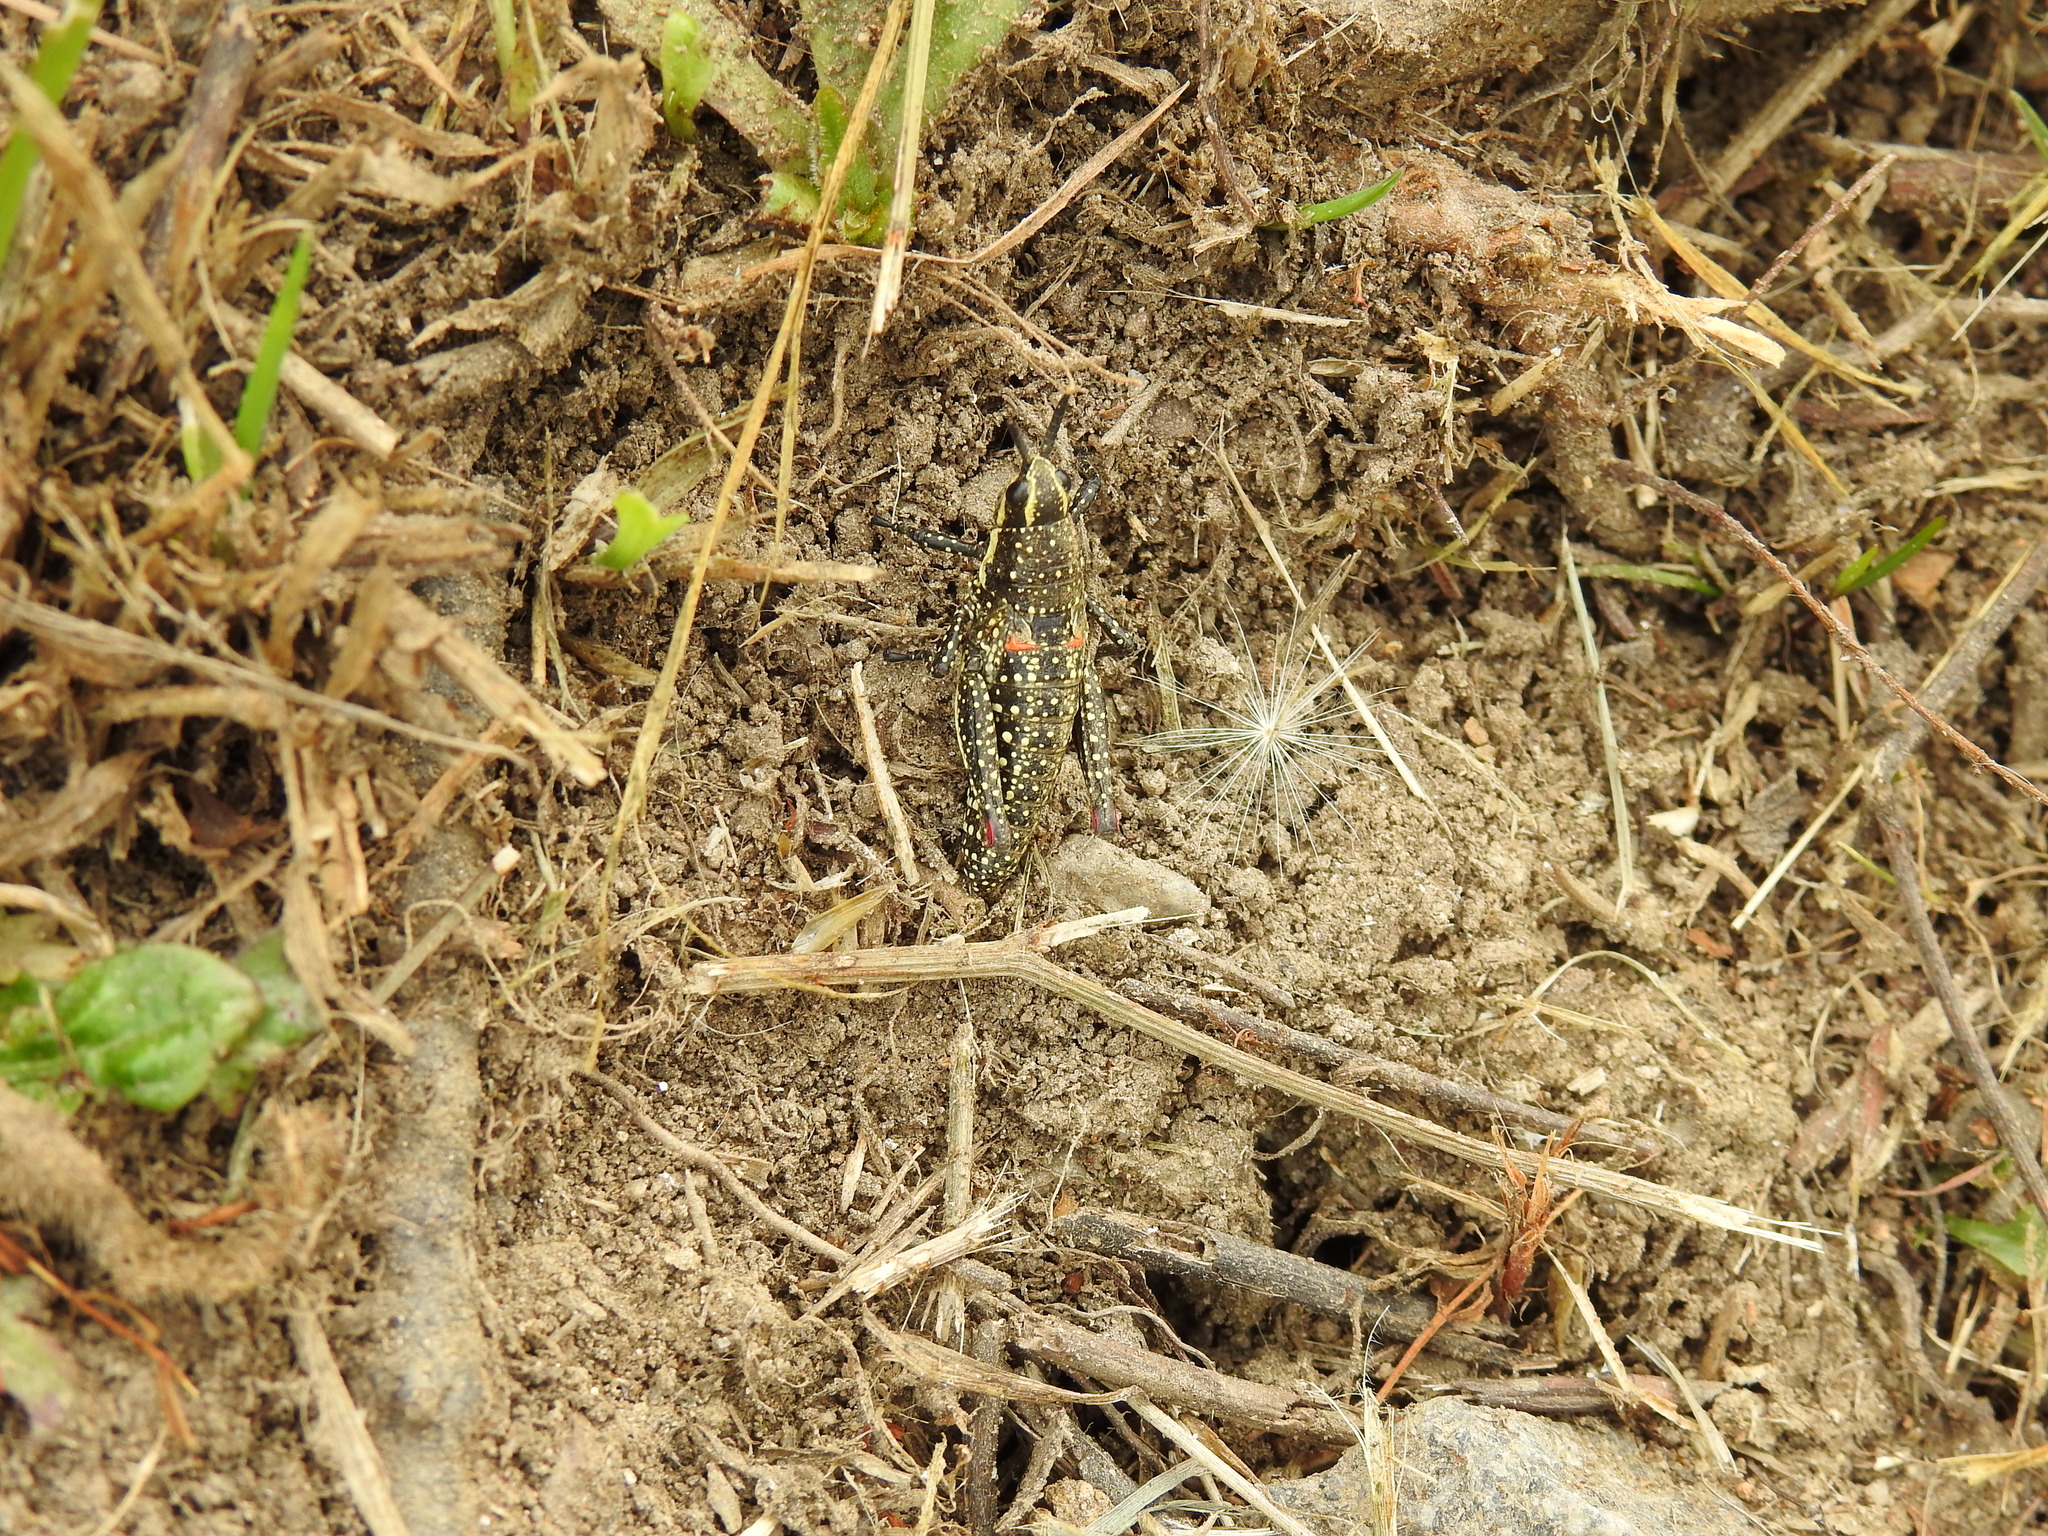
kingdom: Animalia
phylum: Arthropoda
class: Insecta
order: Orthoptera
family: Pyrgomorphidae
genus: Monistria
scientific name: Monistria concinna
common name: Southern pyrgomorph
